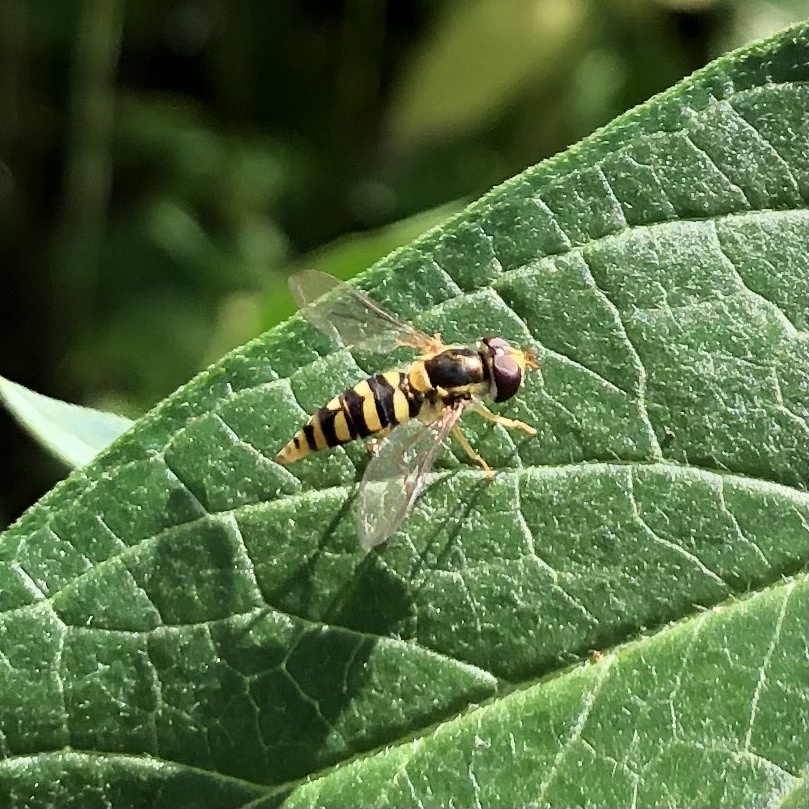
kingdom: Animalia
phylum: Arthropoda
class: Insecta
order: Diptera
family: Syrphidae
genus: Epistrophella
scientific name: Epistrophella emarginata
